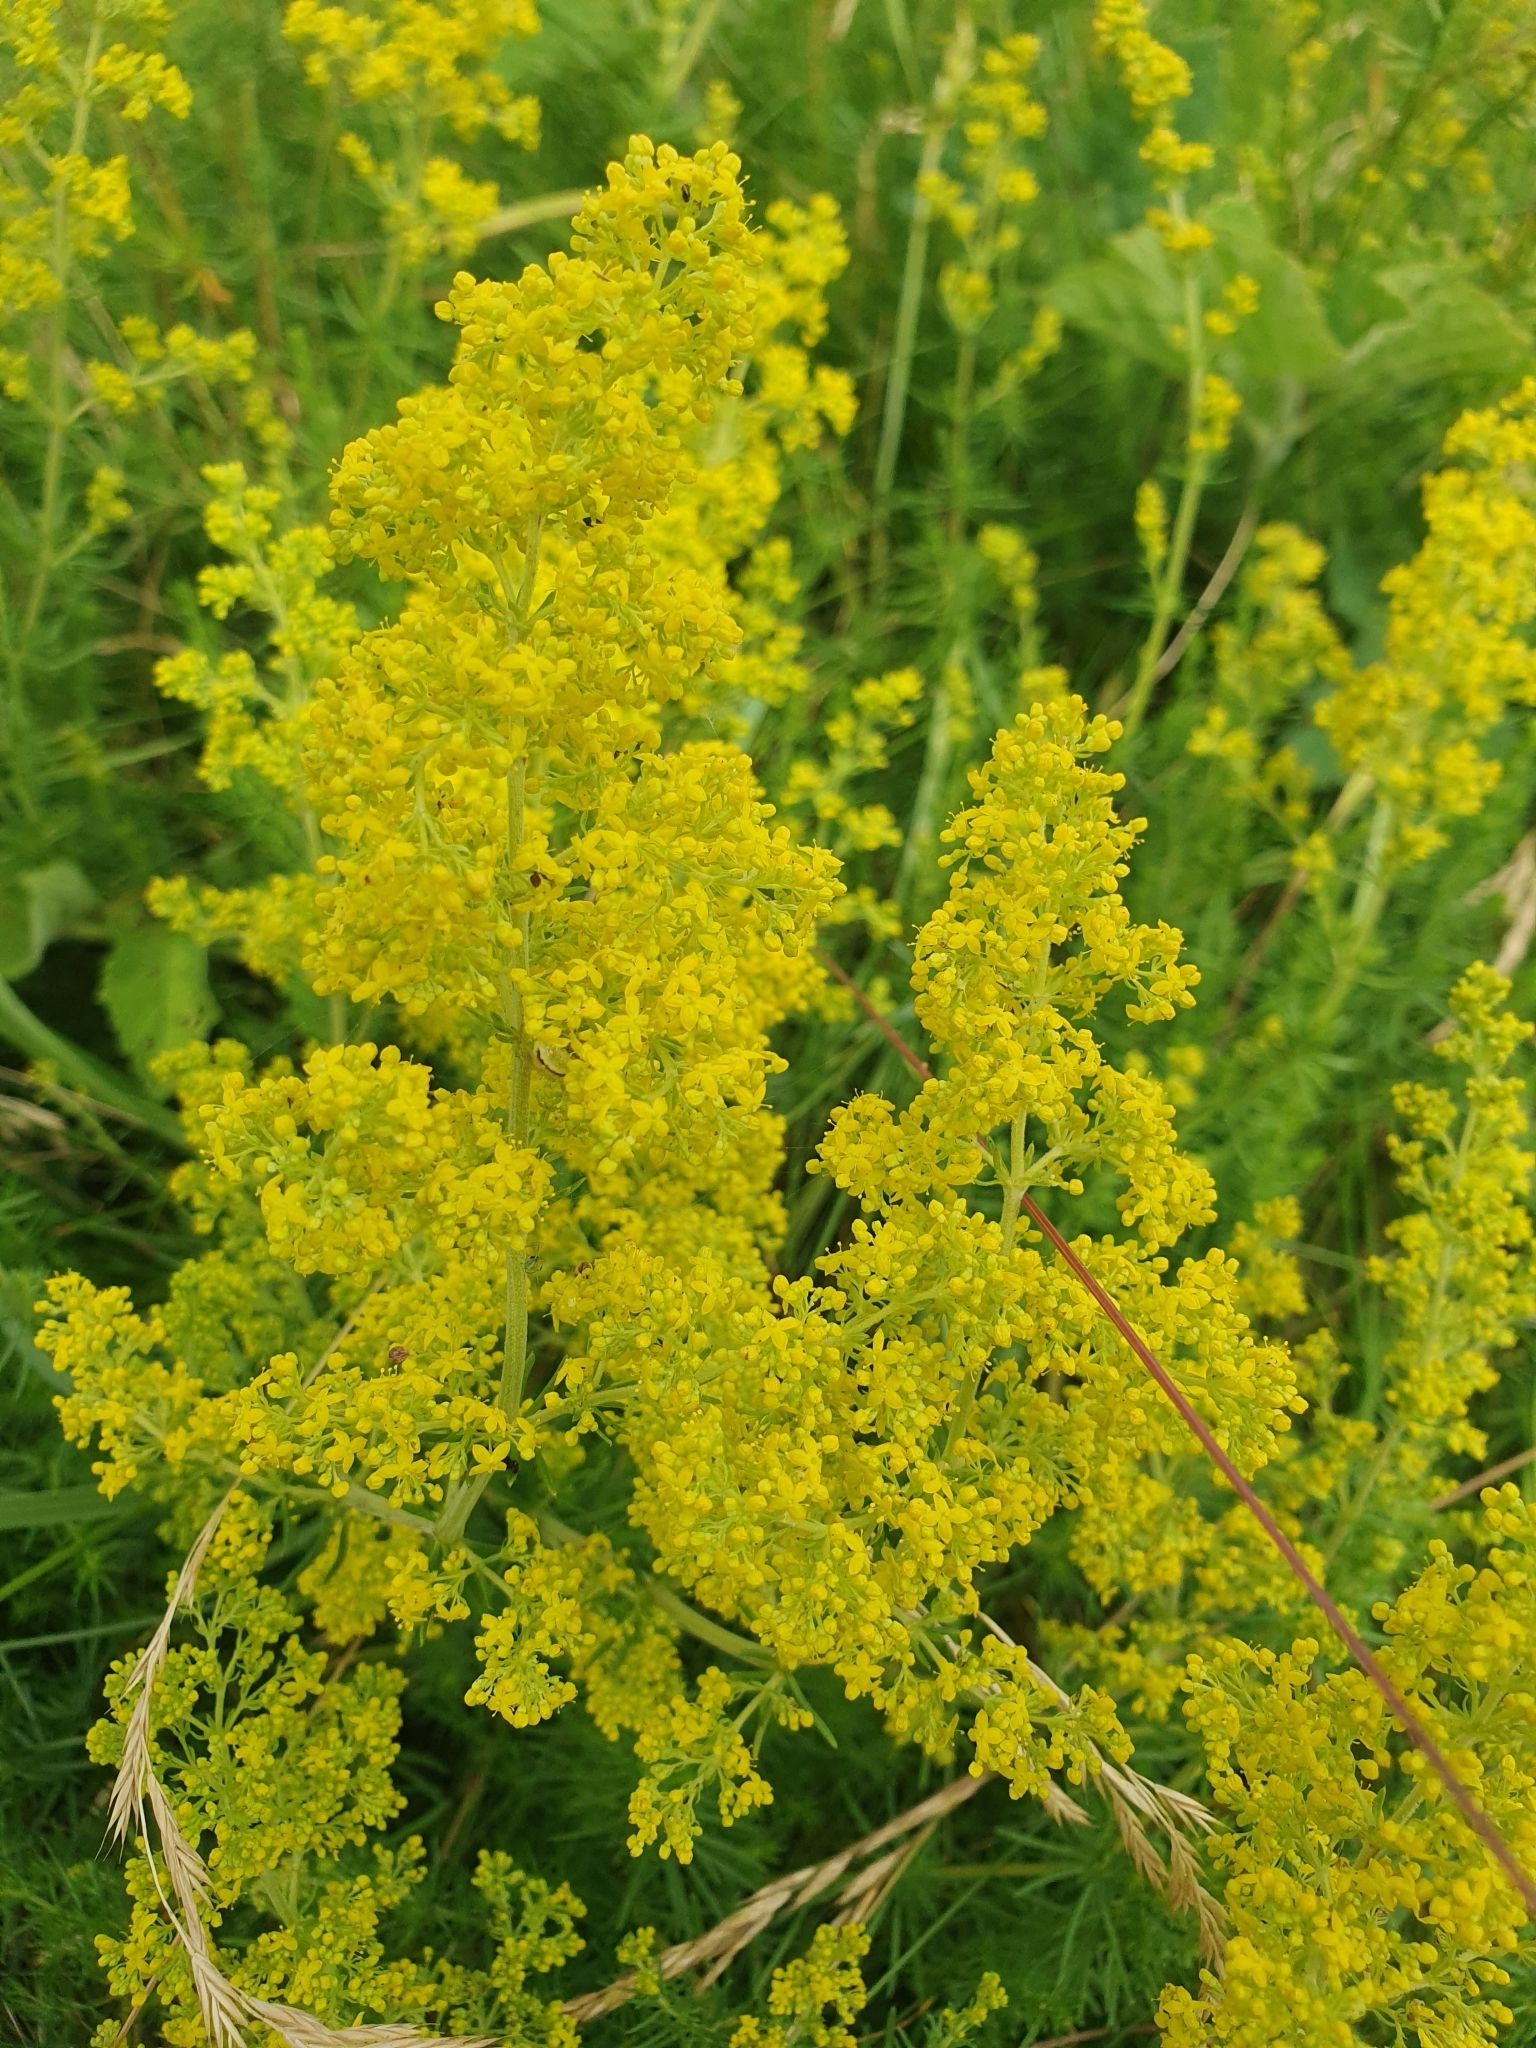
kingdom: Plantae
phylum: Tracheophyta
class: Magnoliopsida
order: Gentianales
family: Rubiaceae
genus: Galium
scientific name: Galium verum
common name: Lady's bedstraw
